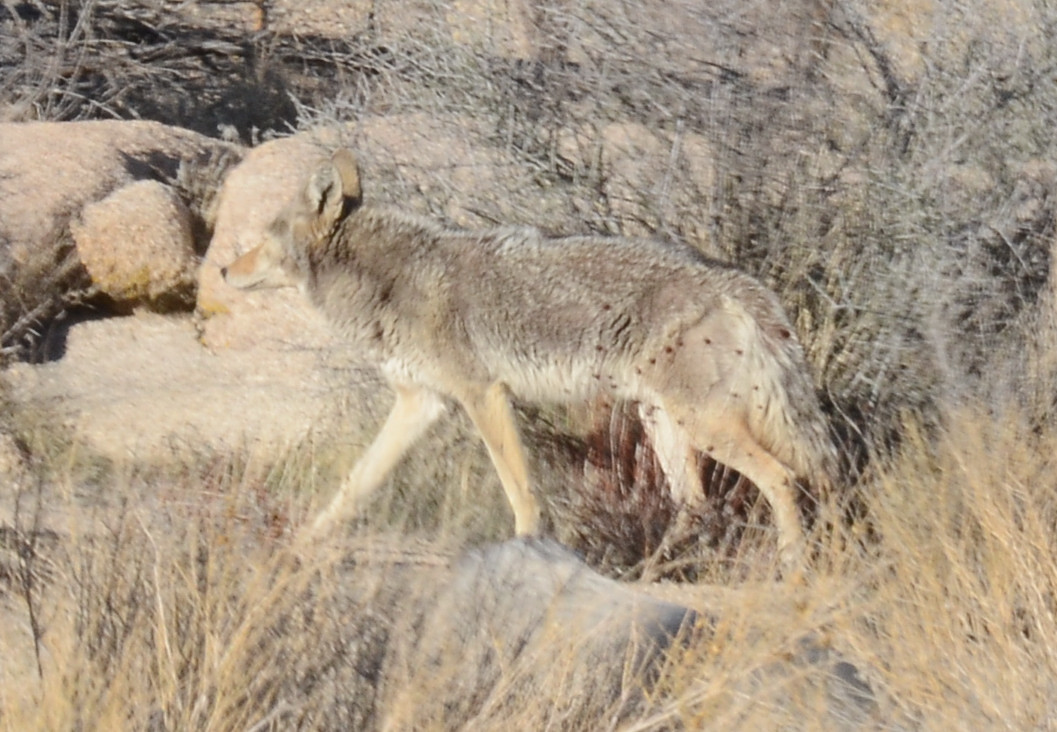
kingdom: Animalia
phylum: Chordata
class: Mammalia
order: Carnivora
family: Canidae
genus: Canis
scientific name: Canis latrans
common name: Coyote
